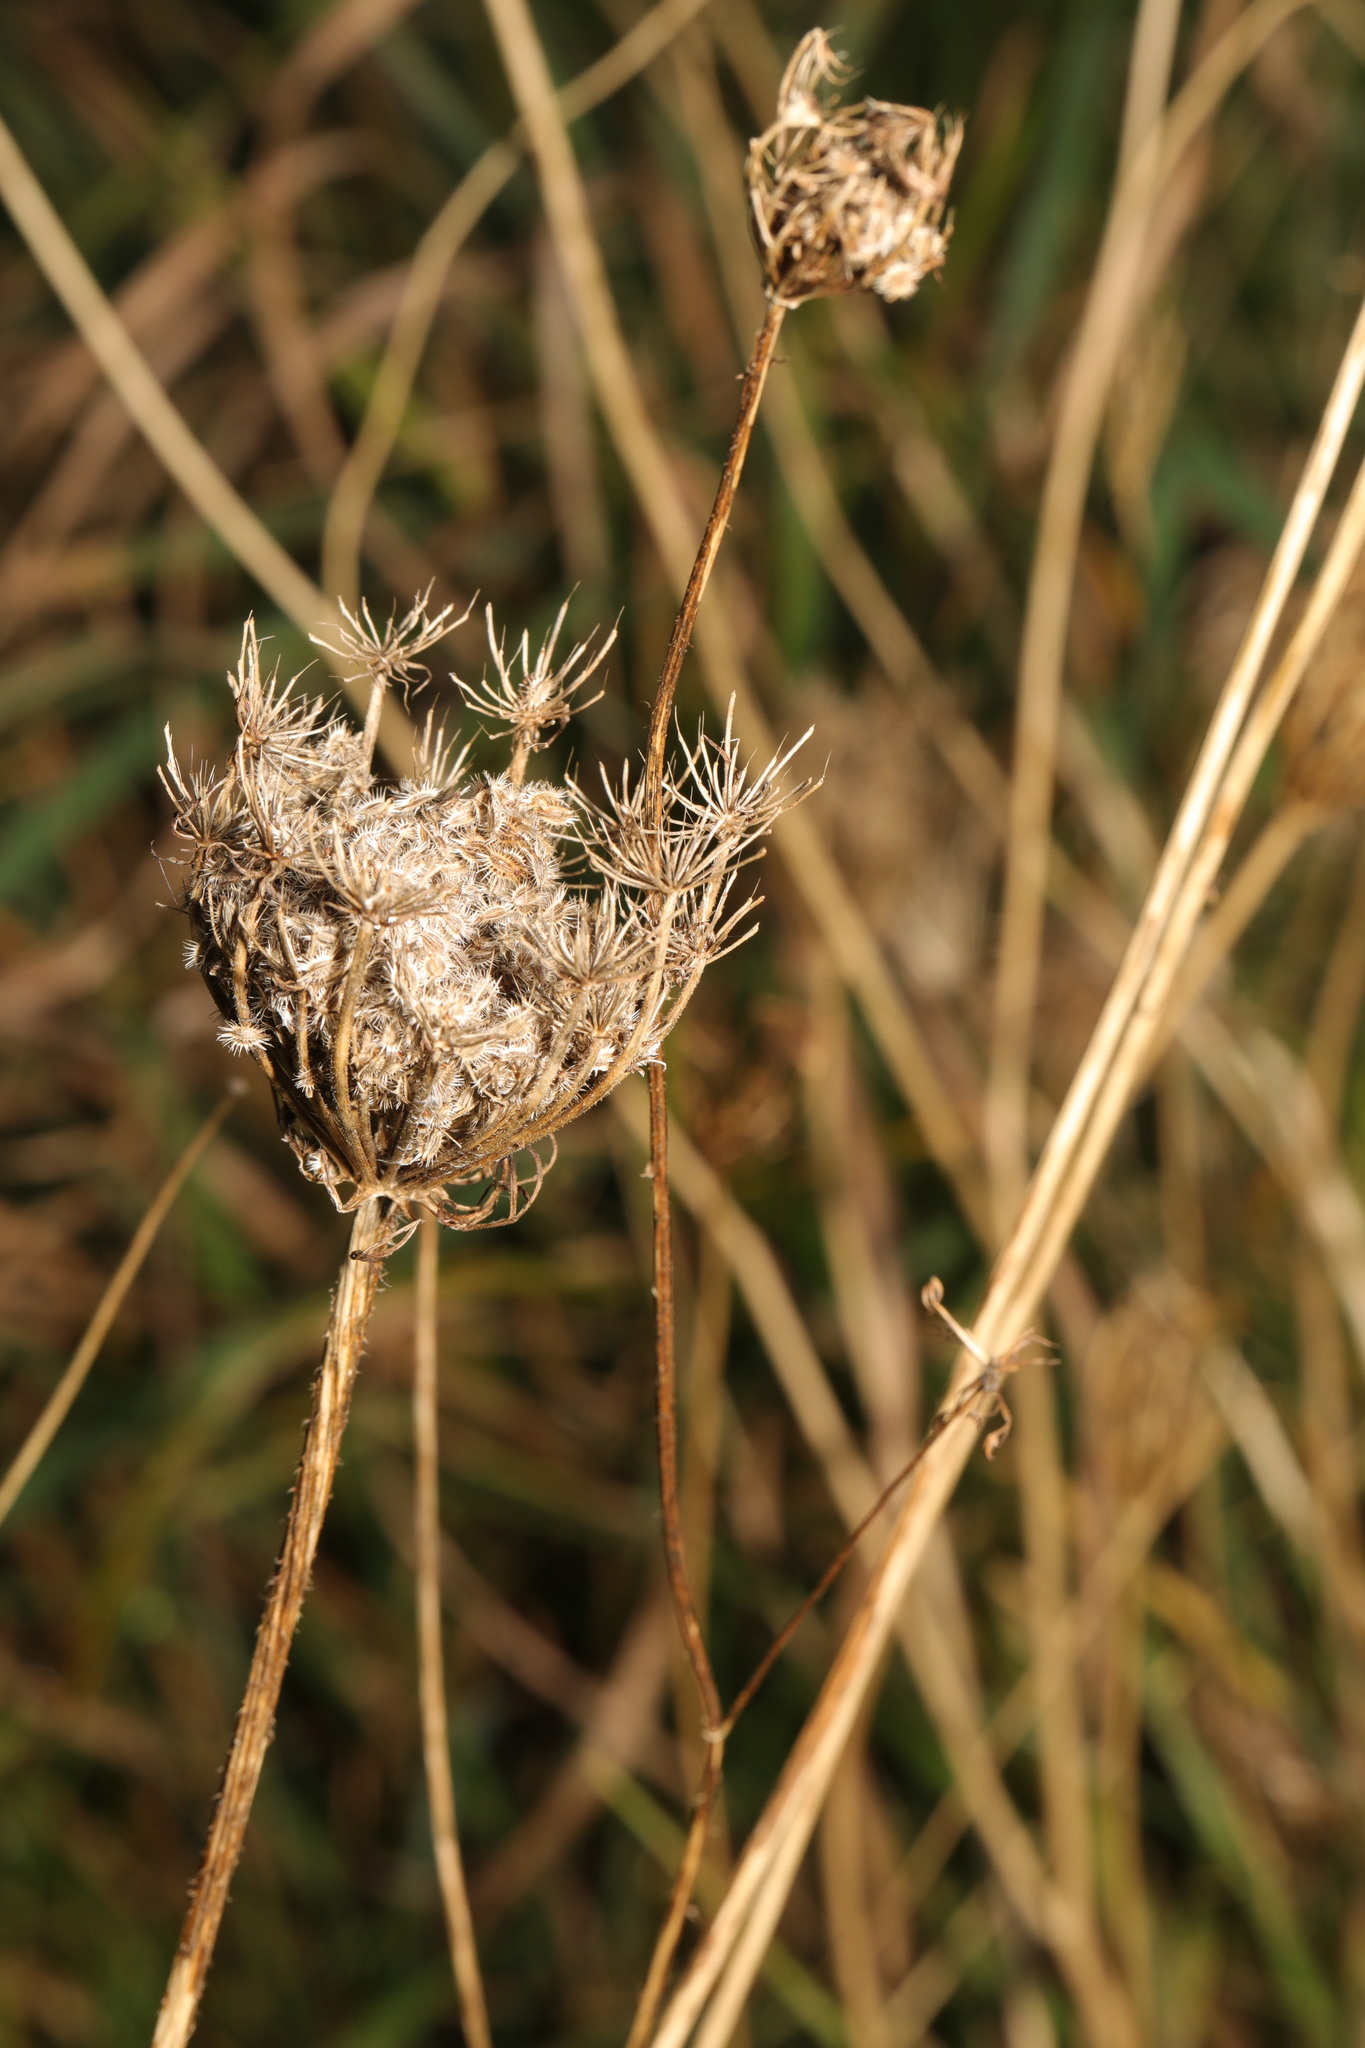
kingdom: Plantae
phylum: Tracheophyta
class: Magnoliopsida
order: Apiales
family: Apiaceae
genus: Daucus
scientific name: Daucus carota
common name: Wild carrot
